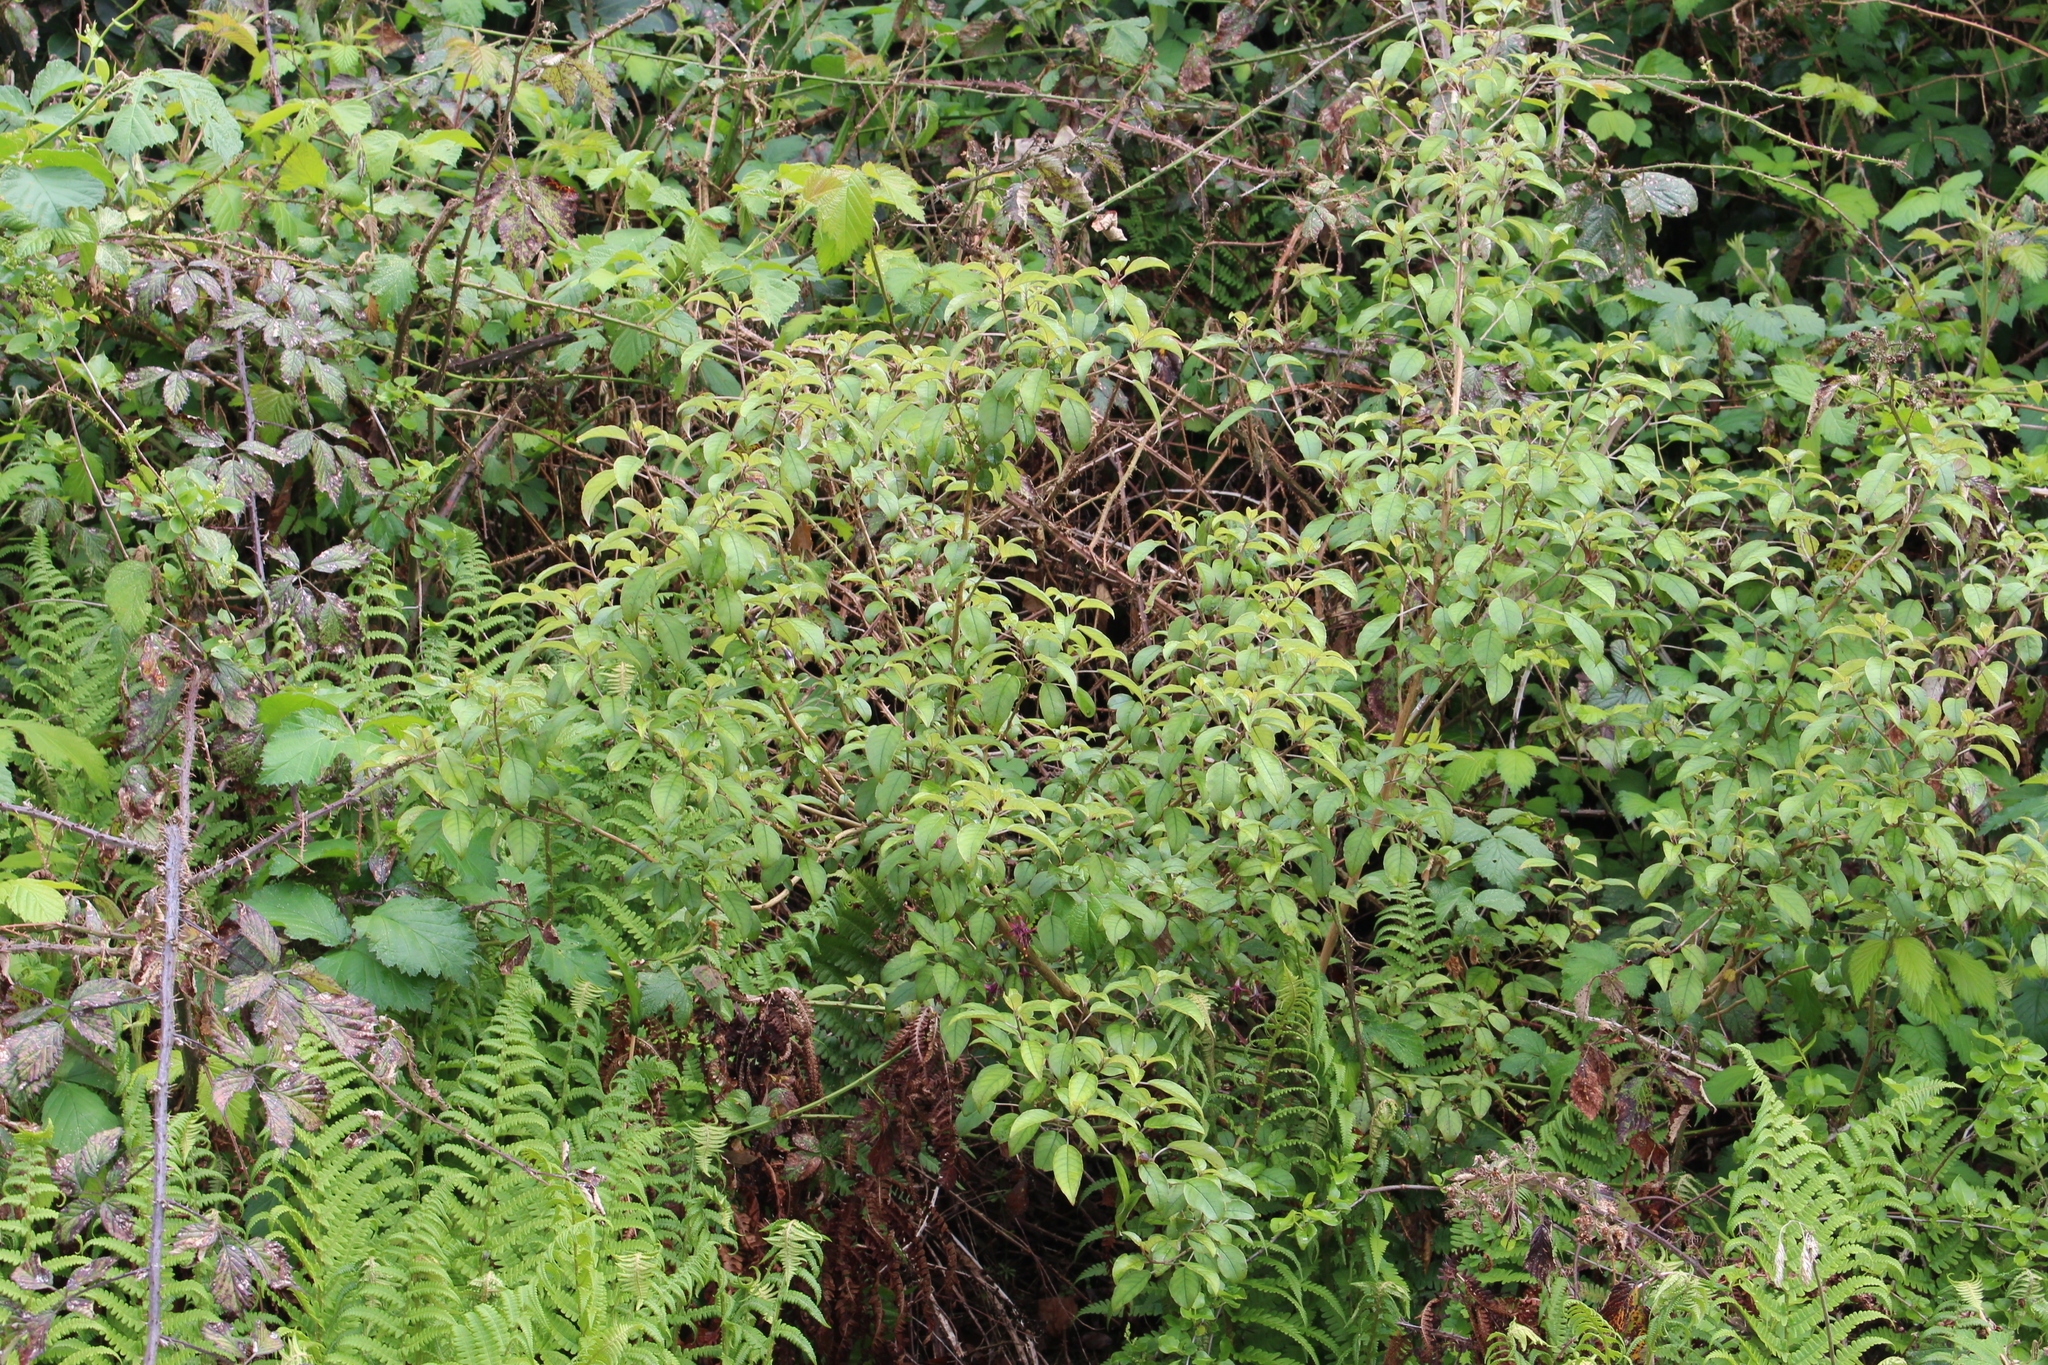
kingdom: Plantae
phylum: Tracheophyta
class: Magnoliopsida
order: Myrtales
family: Onagraceae
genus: Fuchsia
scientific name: Fuchsia excorticata
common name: Tree fuchsia
